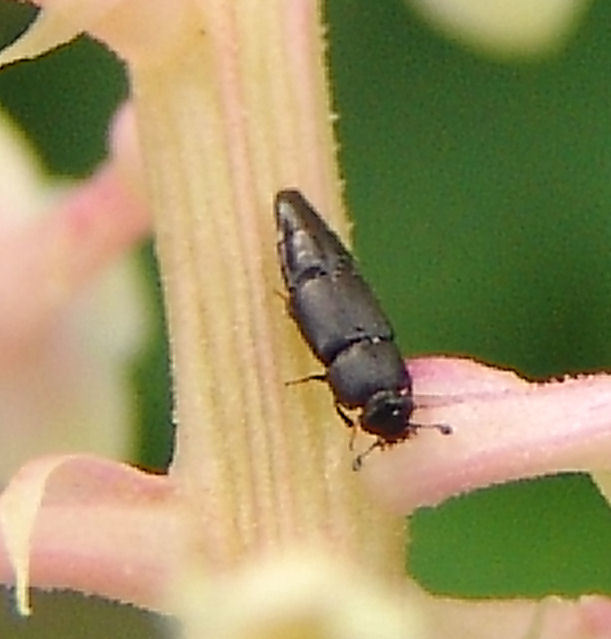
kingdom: Animalia
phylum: Arthropoda
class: Insecta
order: Coleoptera
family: Nitidulidae
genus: Conotelus
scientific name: Conotelus obscurus
